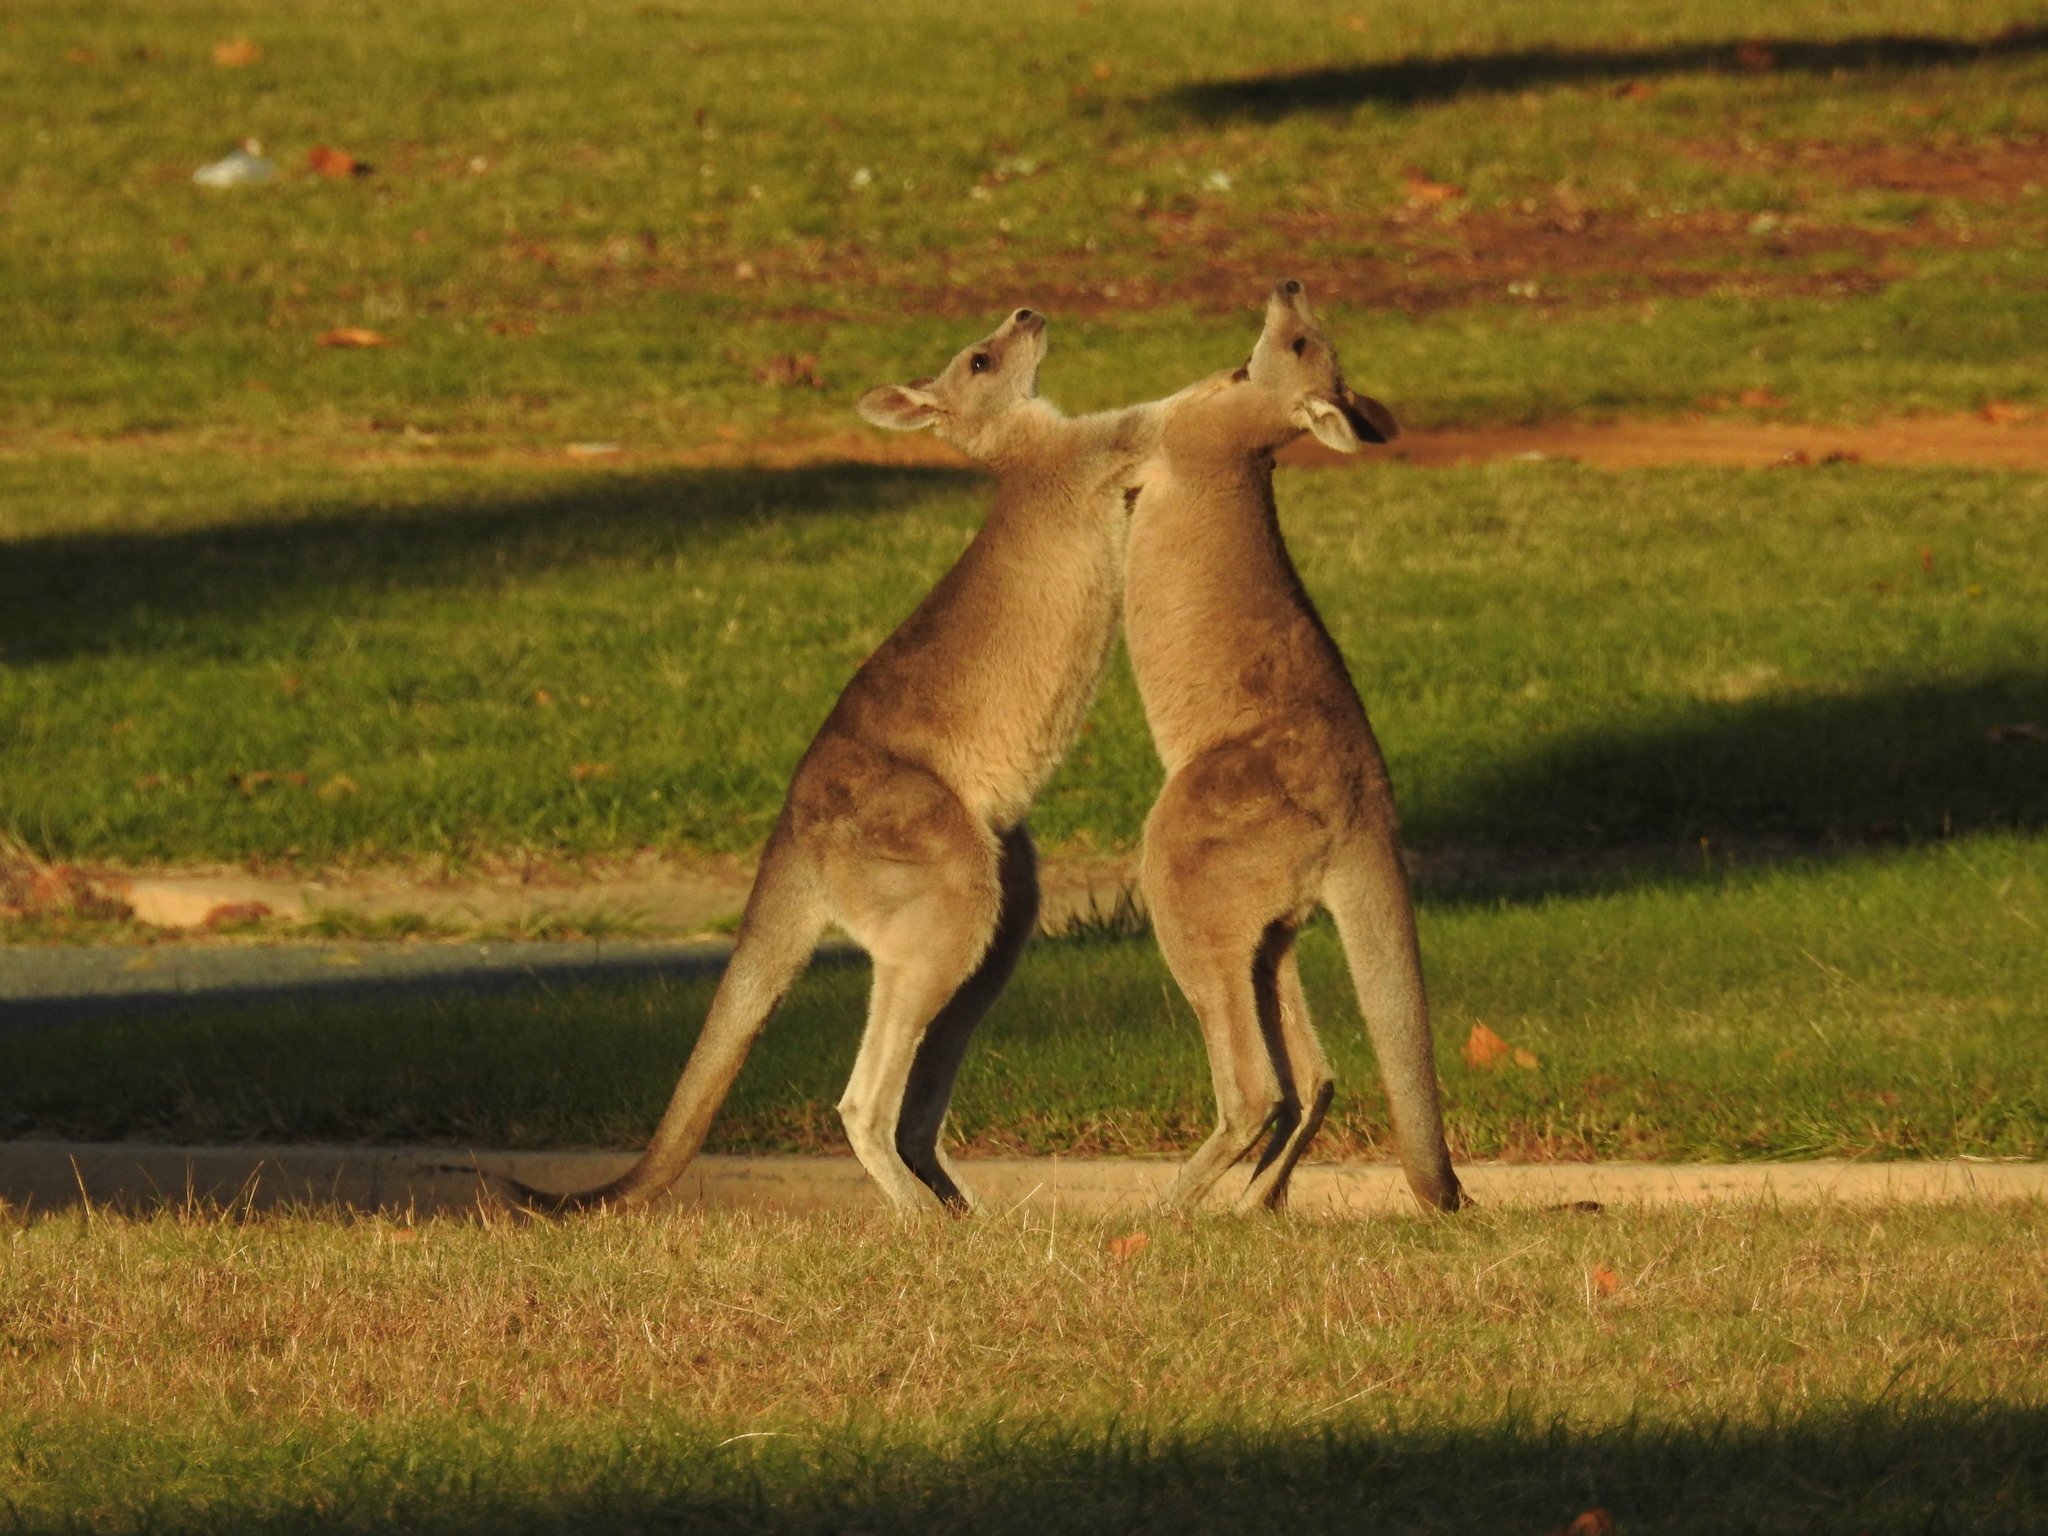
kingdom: Animalia
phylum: Chordata
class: Mammalia
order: Diprotodontia
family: Macropodidae
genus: Macropus
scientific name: Macropus giganteus
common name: Eastern grey kangaroo
